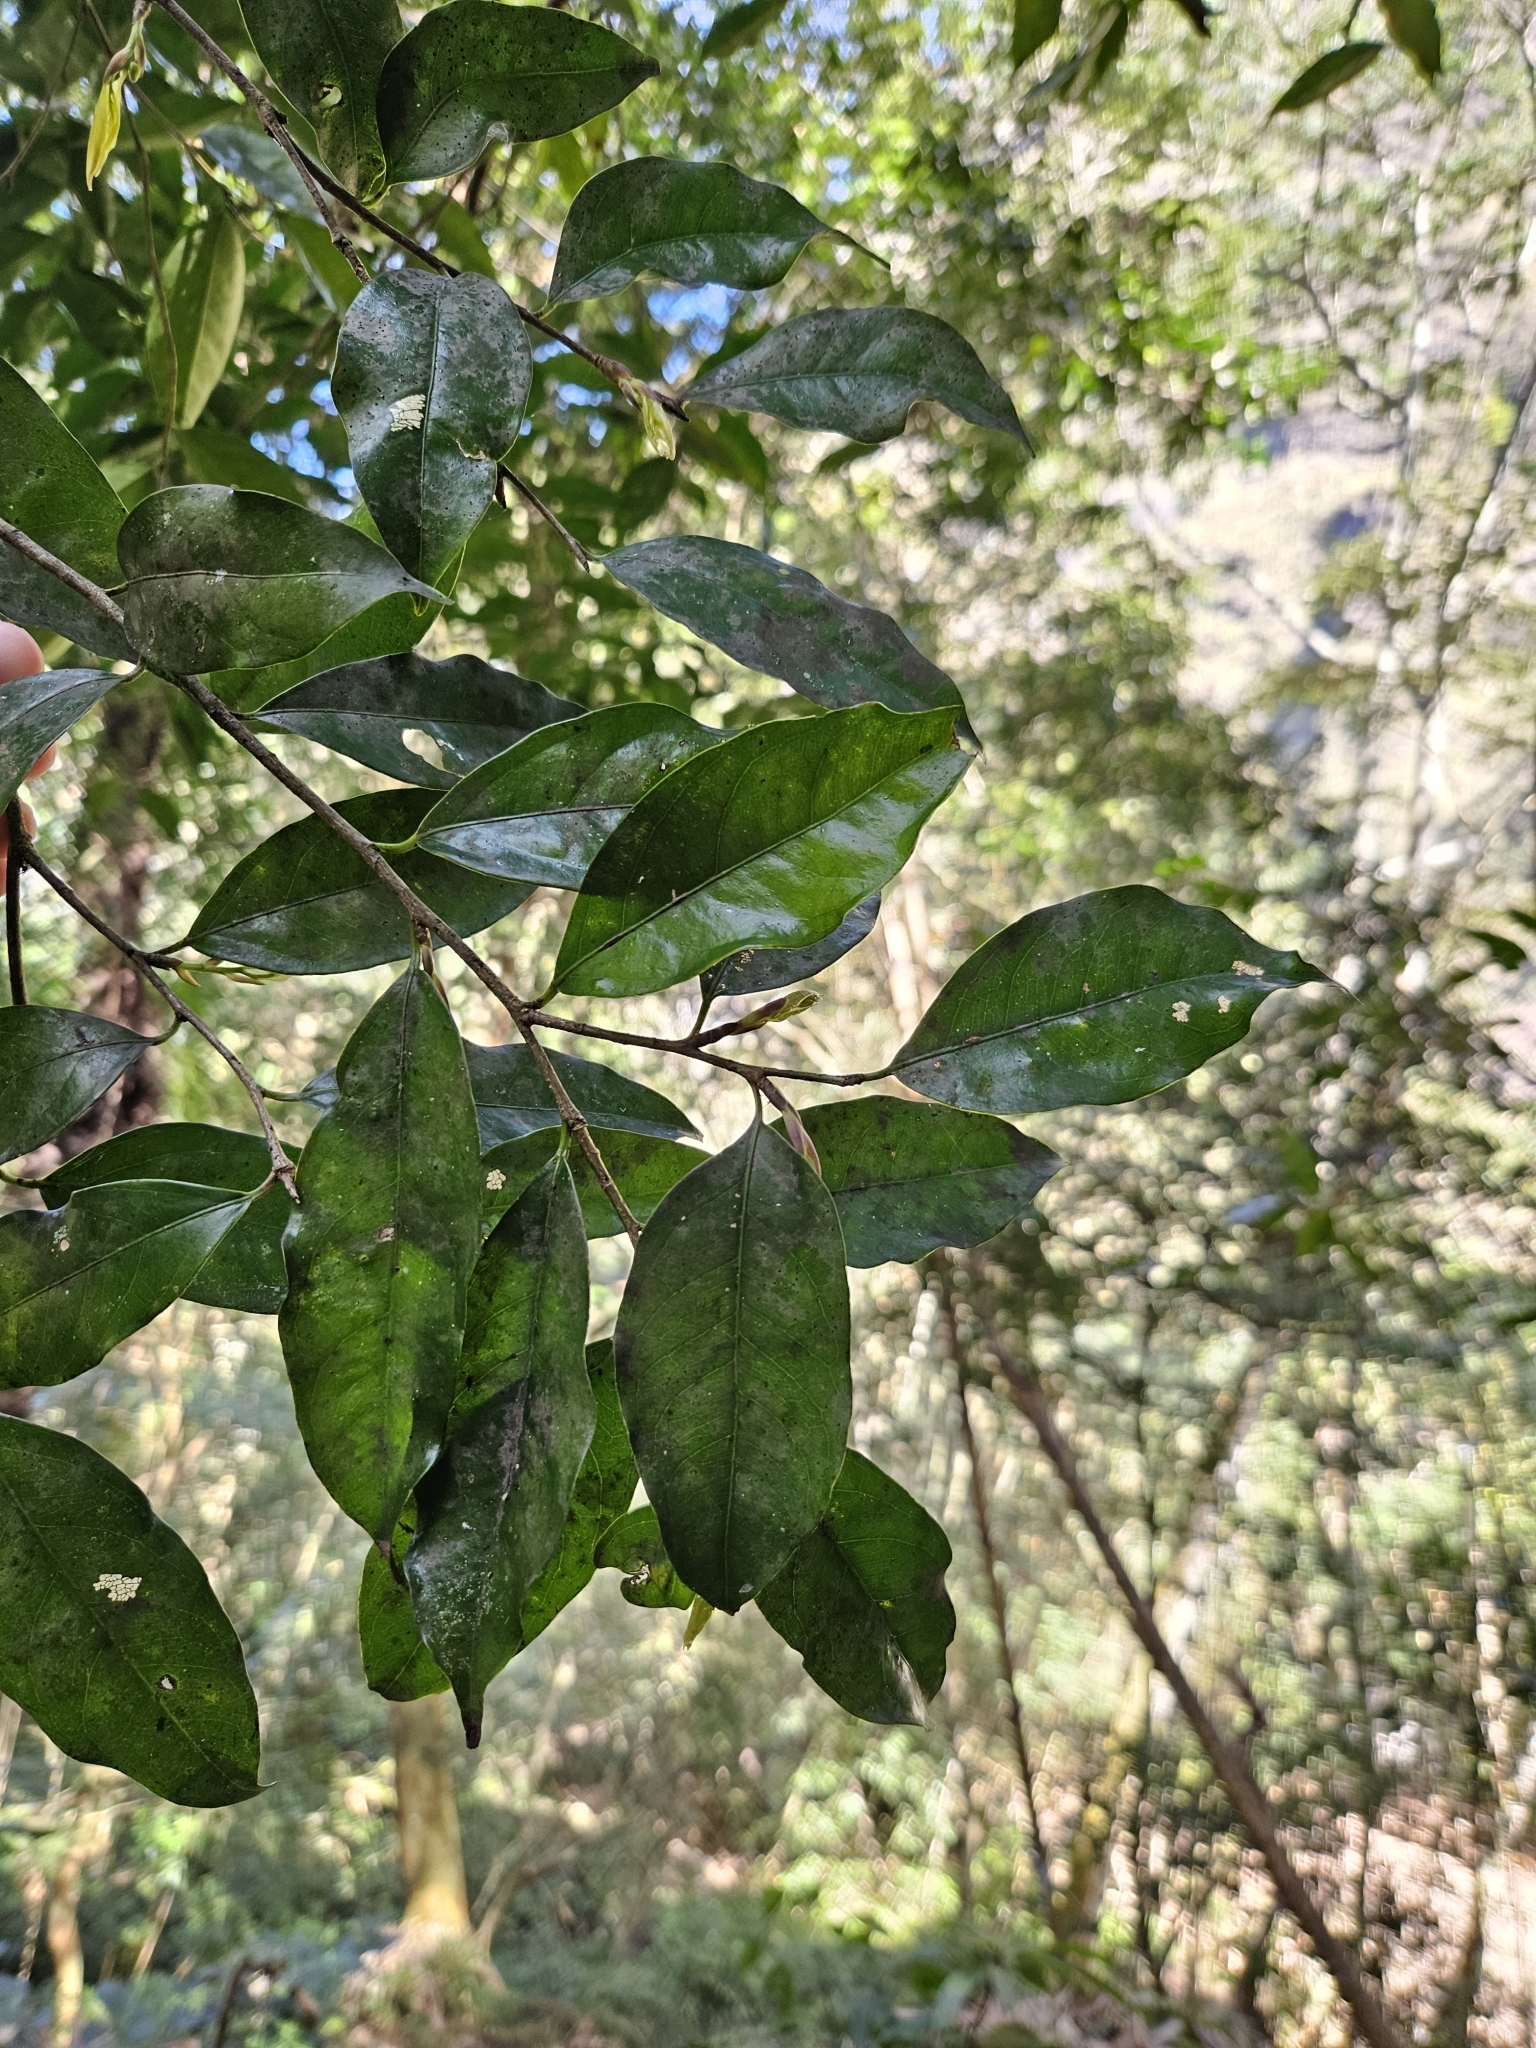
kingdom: Plantae
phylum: Tracheophyta
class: Magnoliopsida
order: Malpighiales
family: Putranjivaceae
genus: Drypetes
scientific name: Drypetes indica
